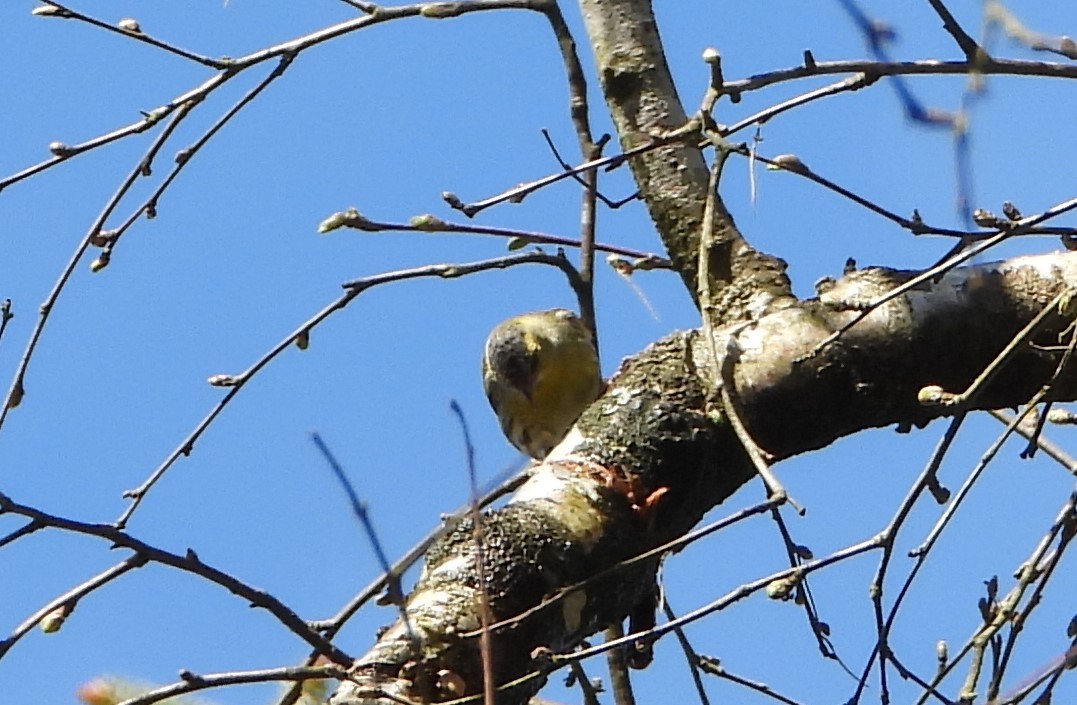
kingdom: Animalia
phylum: Chordata
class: Aves
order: Passeriformes
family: Fringillidae
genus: Spinus
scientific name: Spinus spinus
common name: Eurasian siskin
